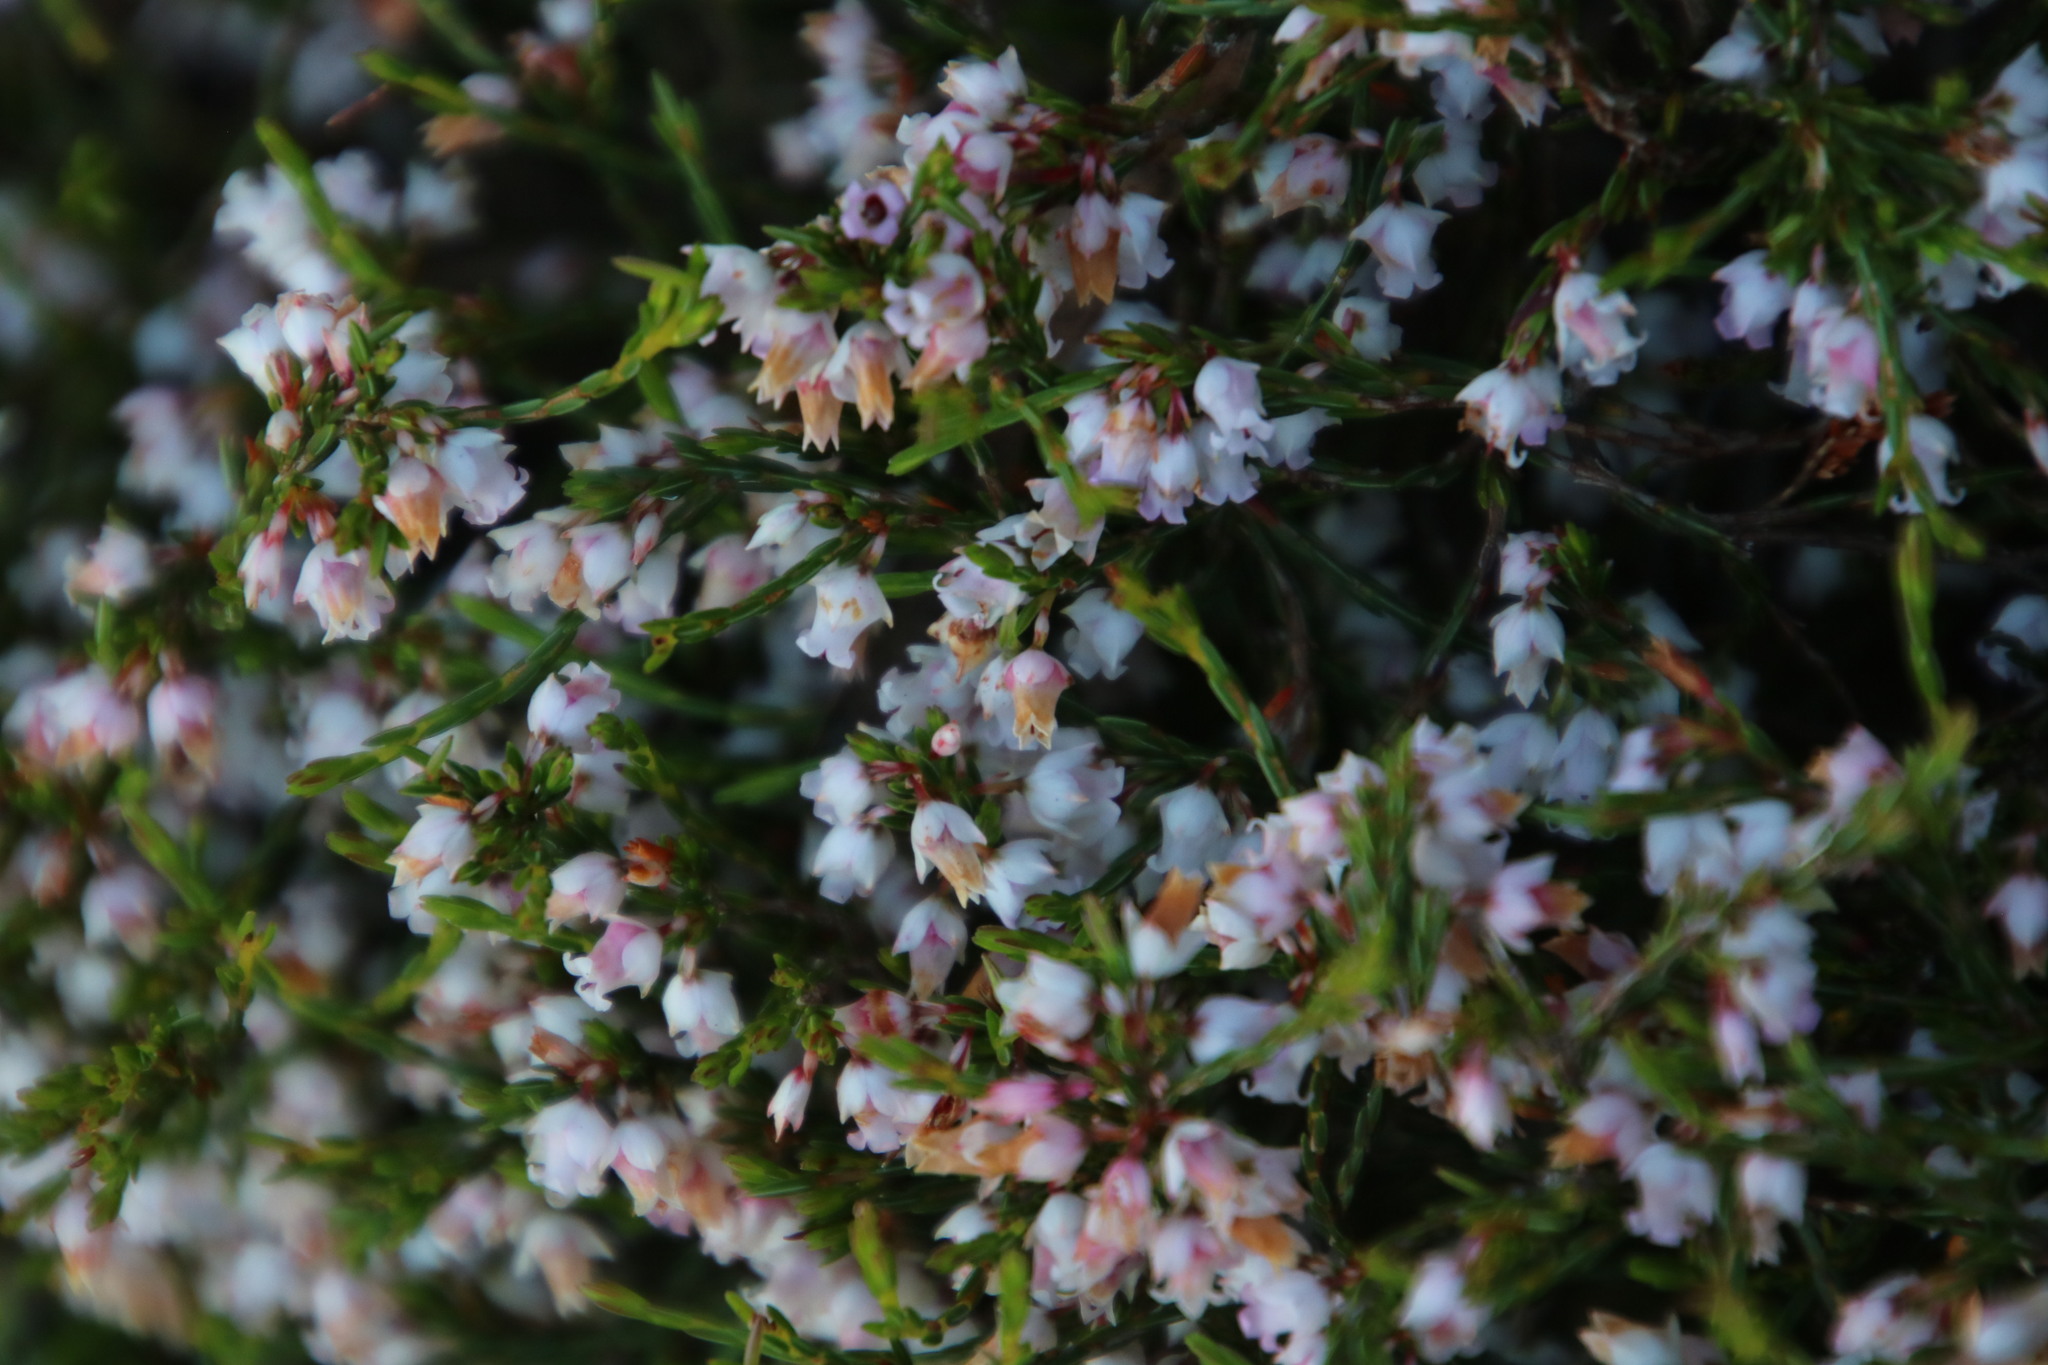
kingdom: Plantae
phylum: Tracheophyta
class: Magnoliopsida
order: Ericales
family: Ericaceae
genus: Erica
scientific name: Erica tenuifolia
